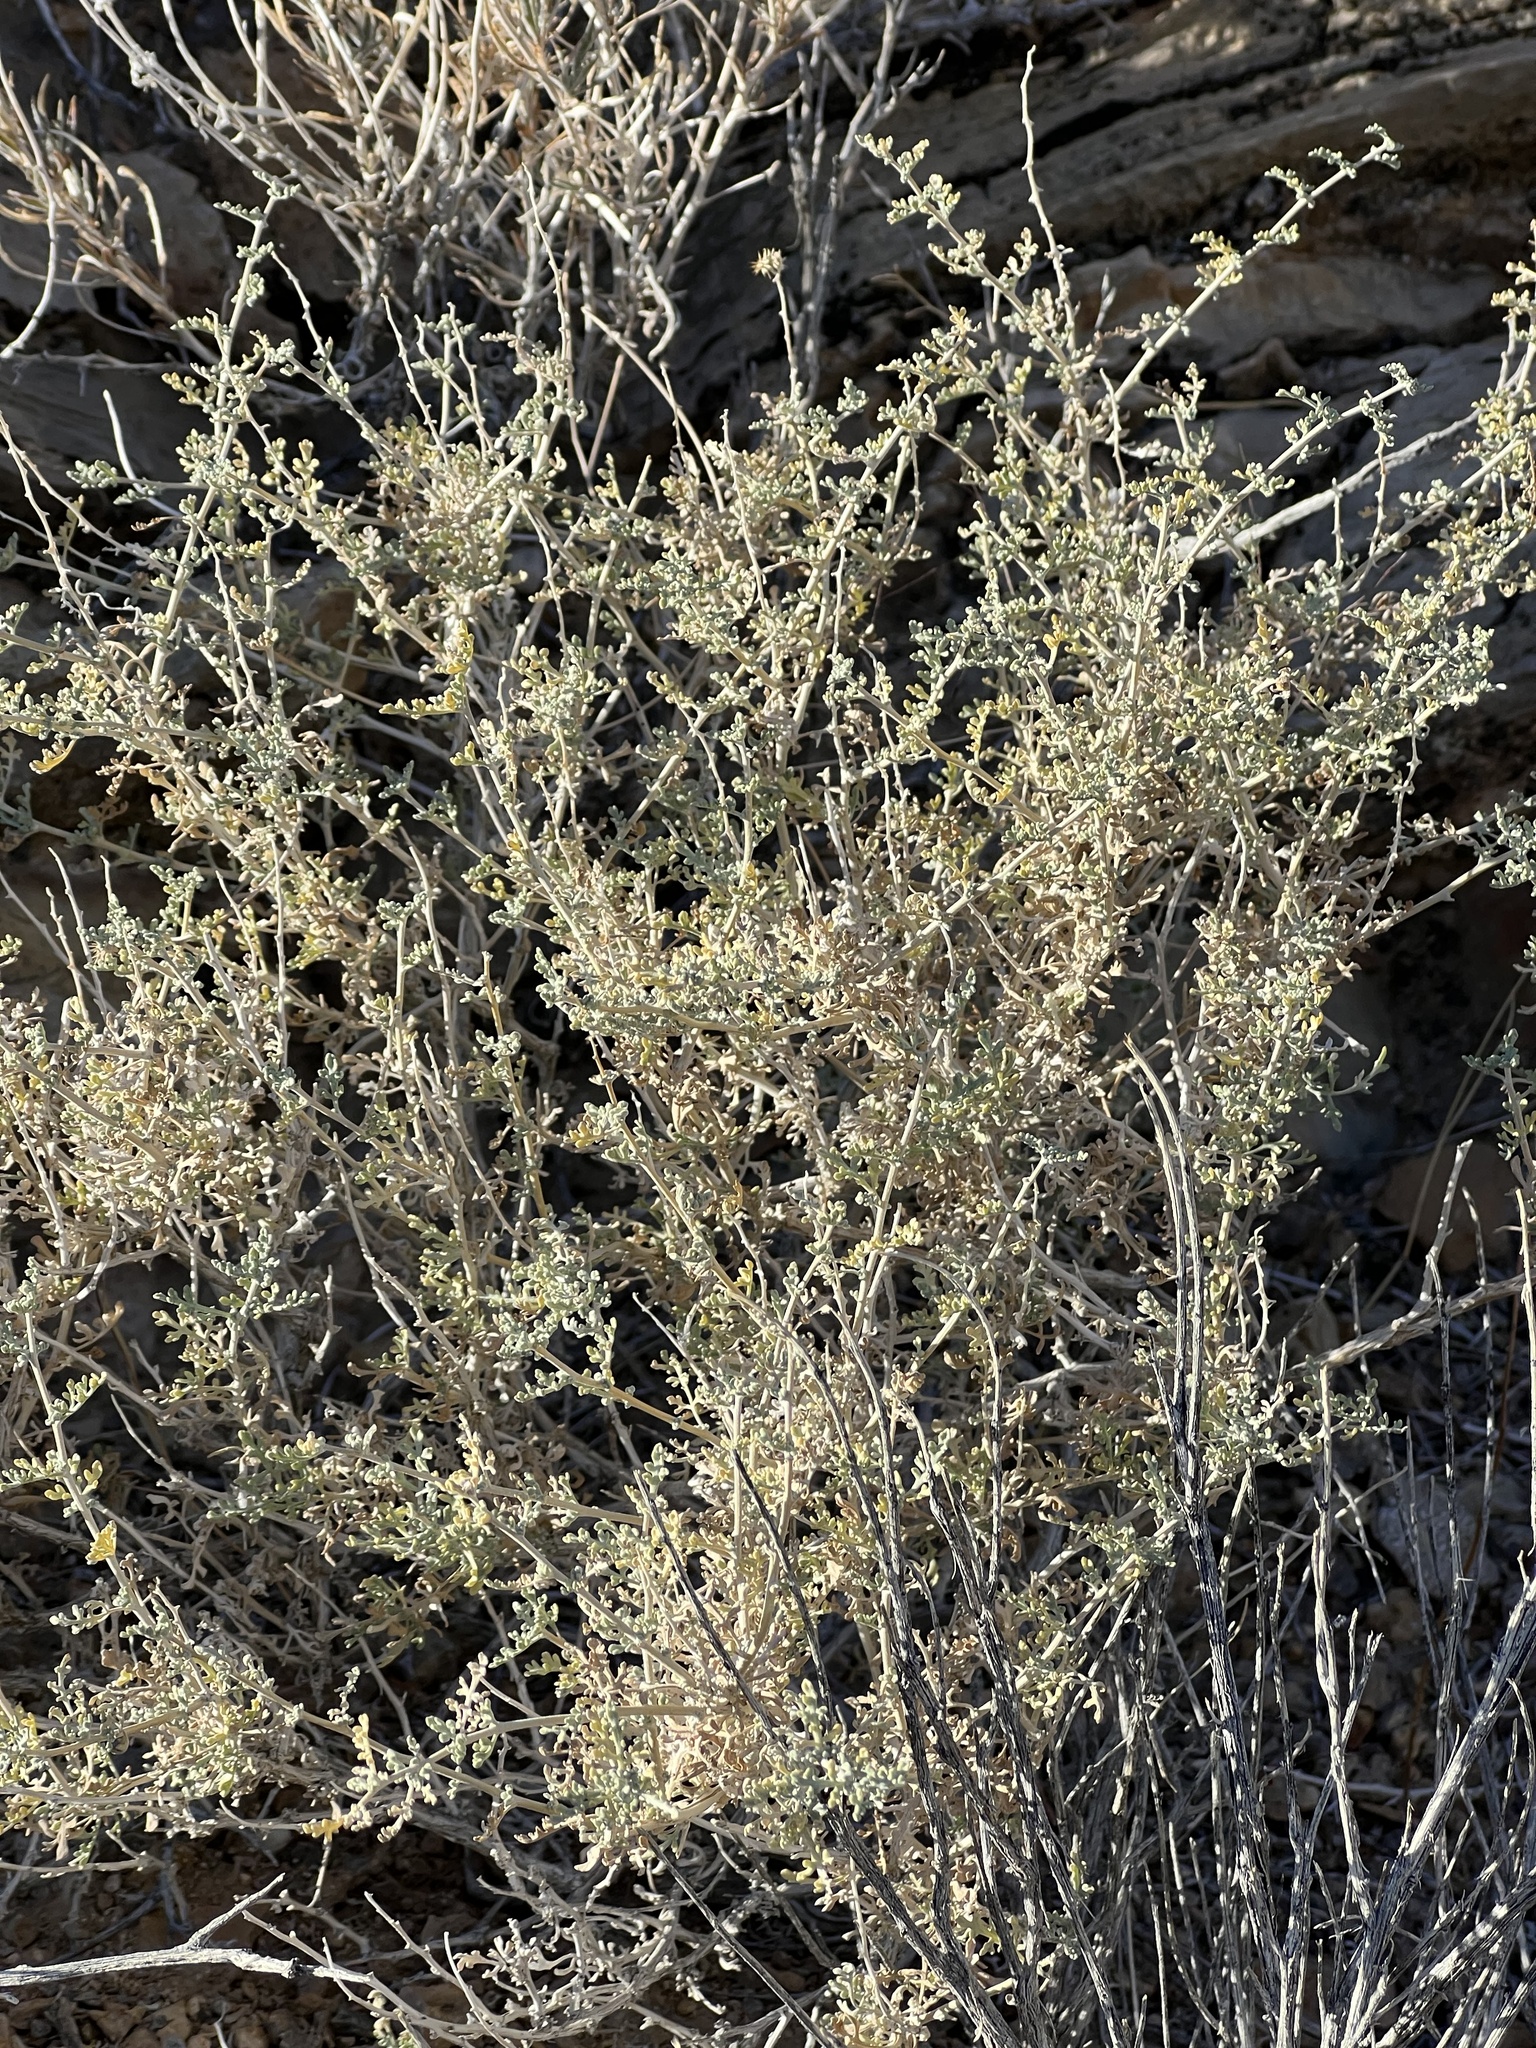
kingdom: Plantae
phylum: Tracheophyta
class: Magnoliopsida
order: Asterales
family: Asteraceae
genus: Ambrosia
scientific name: Ambrosia dumosa
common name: Bur-sage
